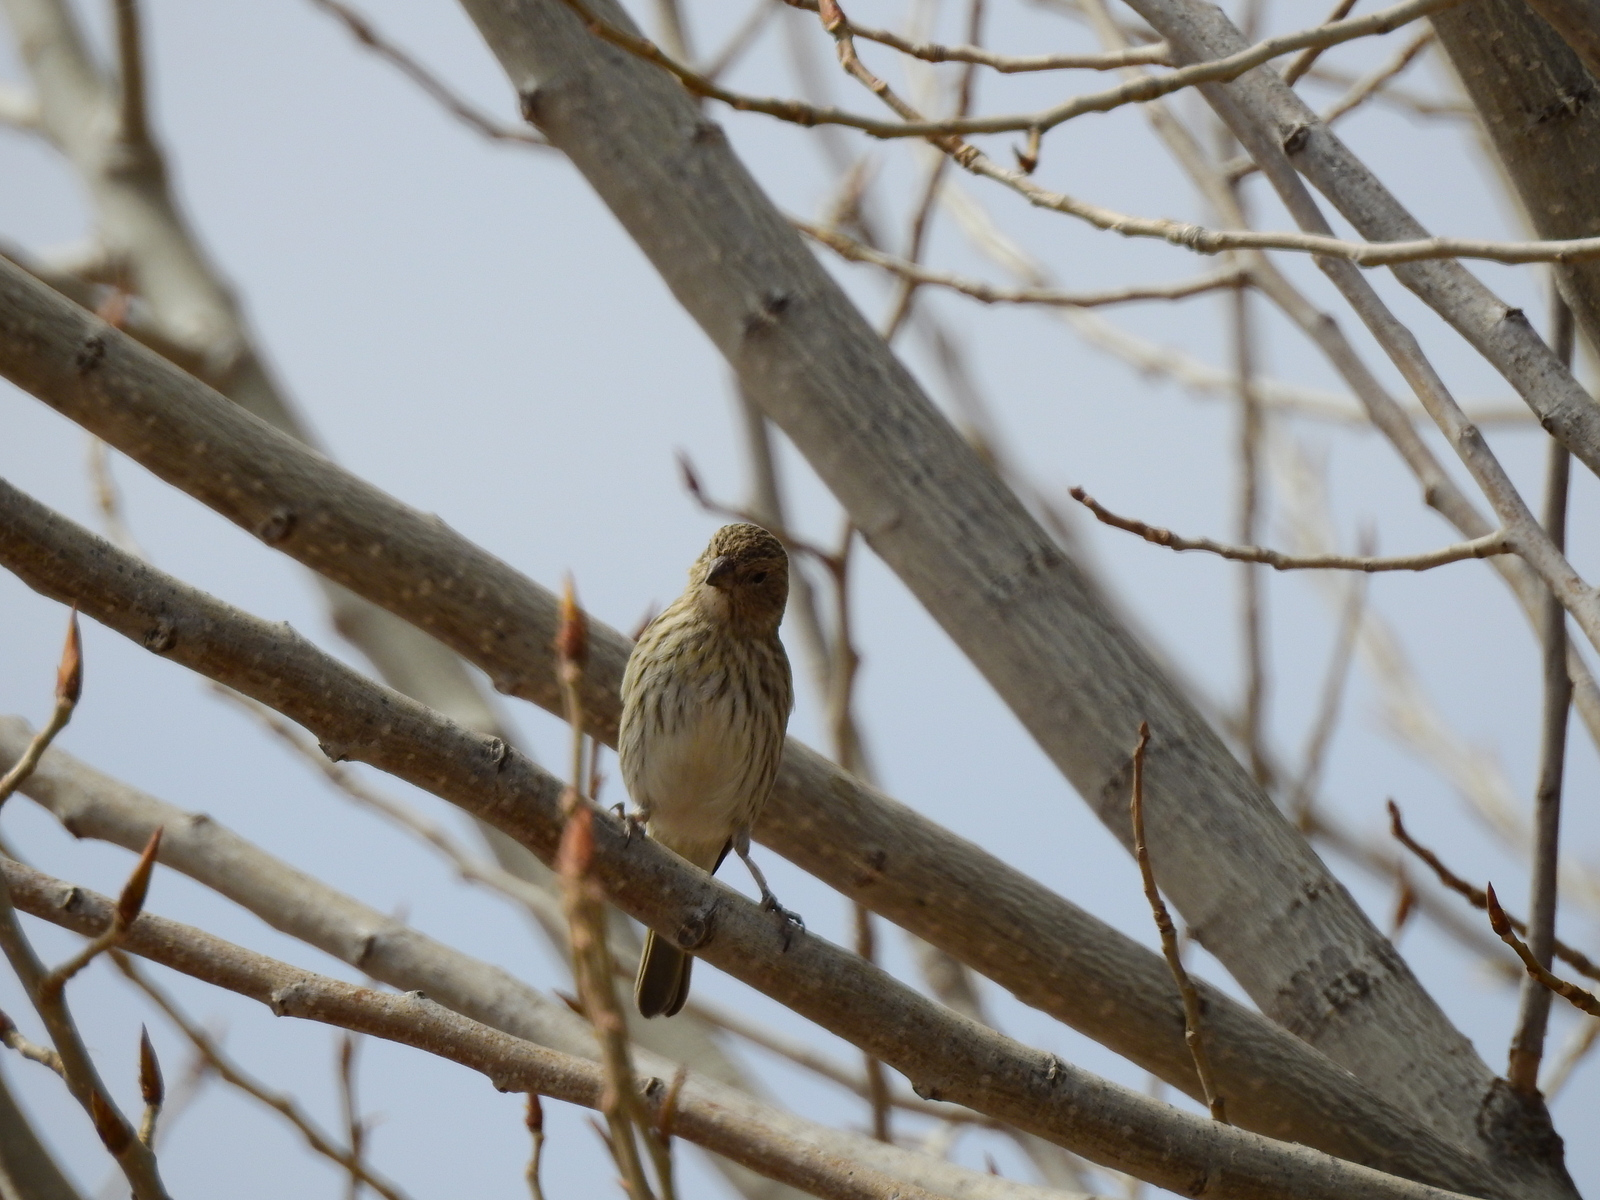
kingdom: Animalia
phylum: Chordata
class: Aves
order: Passeriformes
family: Thraupidae
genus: Sicalis
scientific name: Sicalis flaveola
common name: Saffron finch
